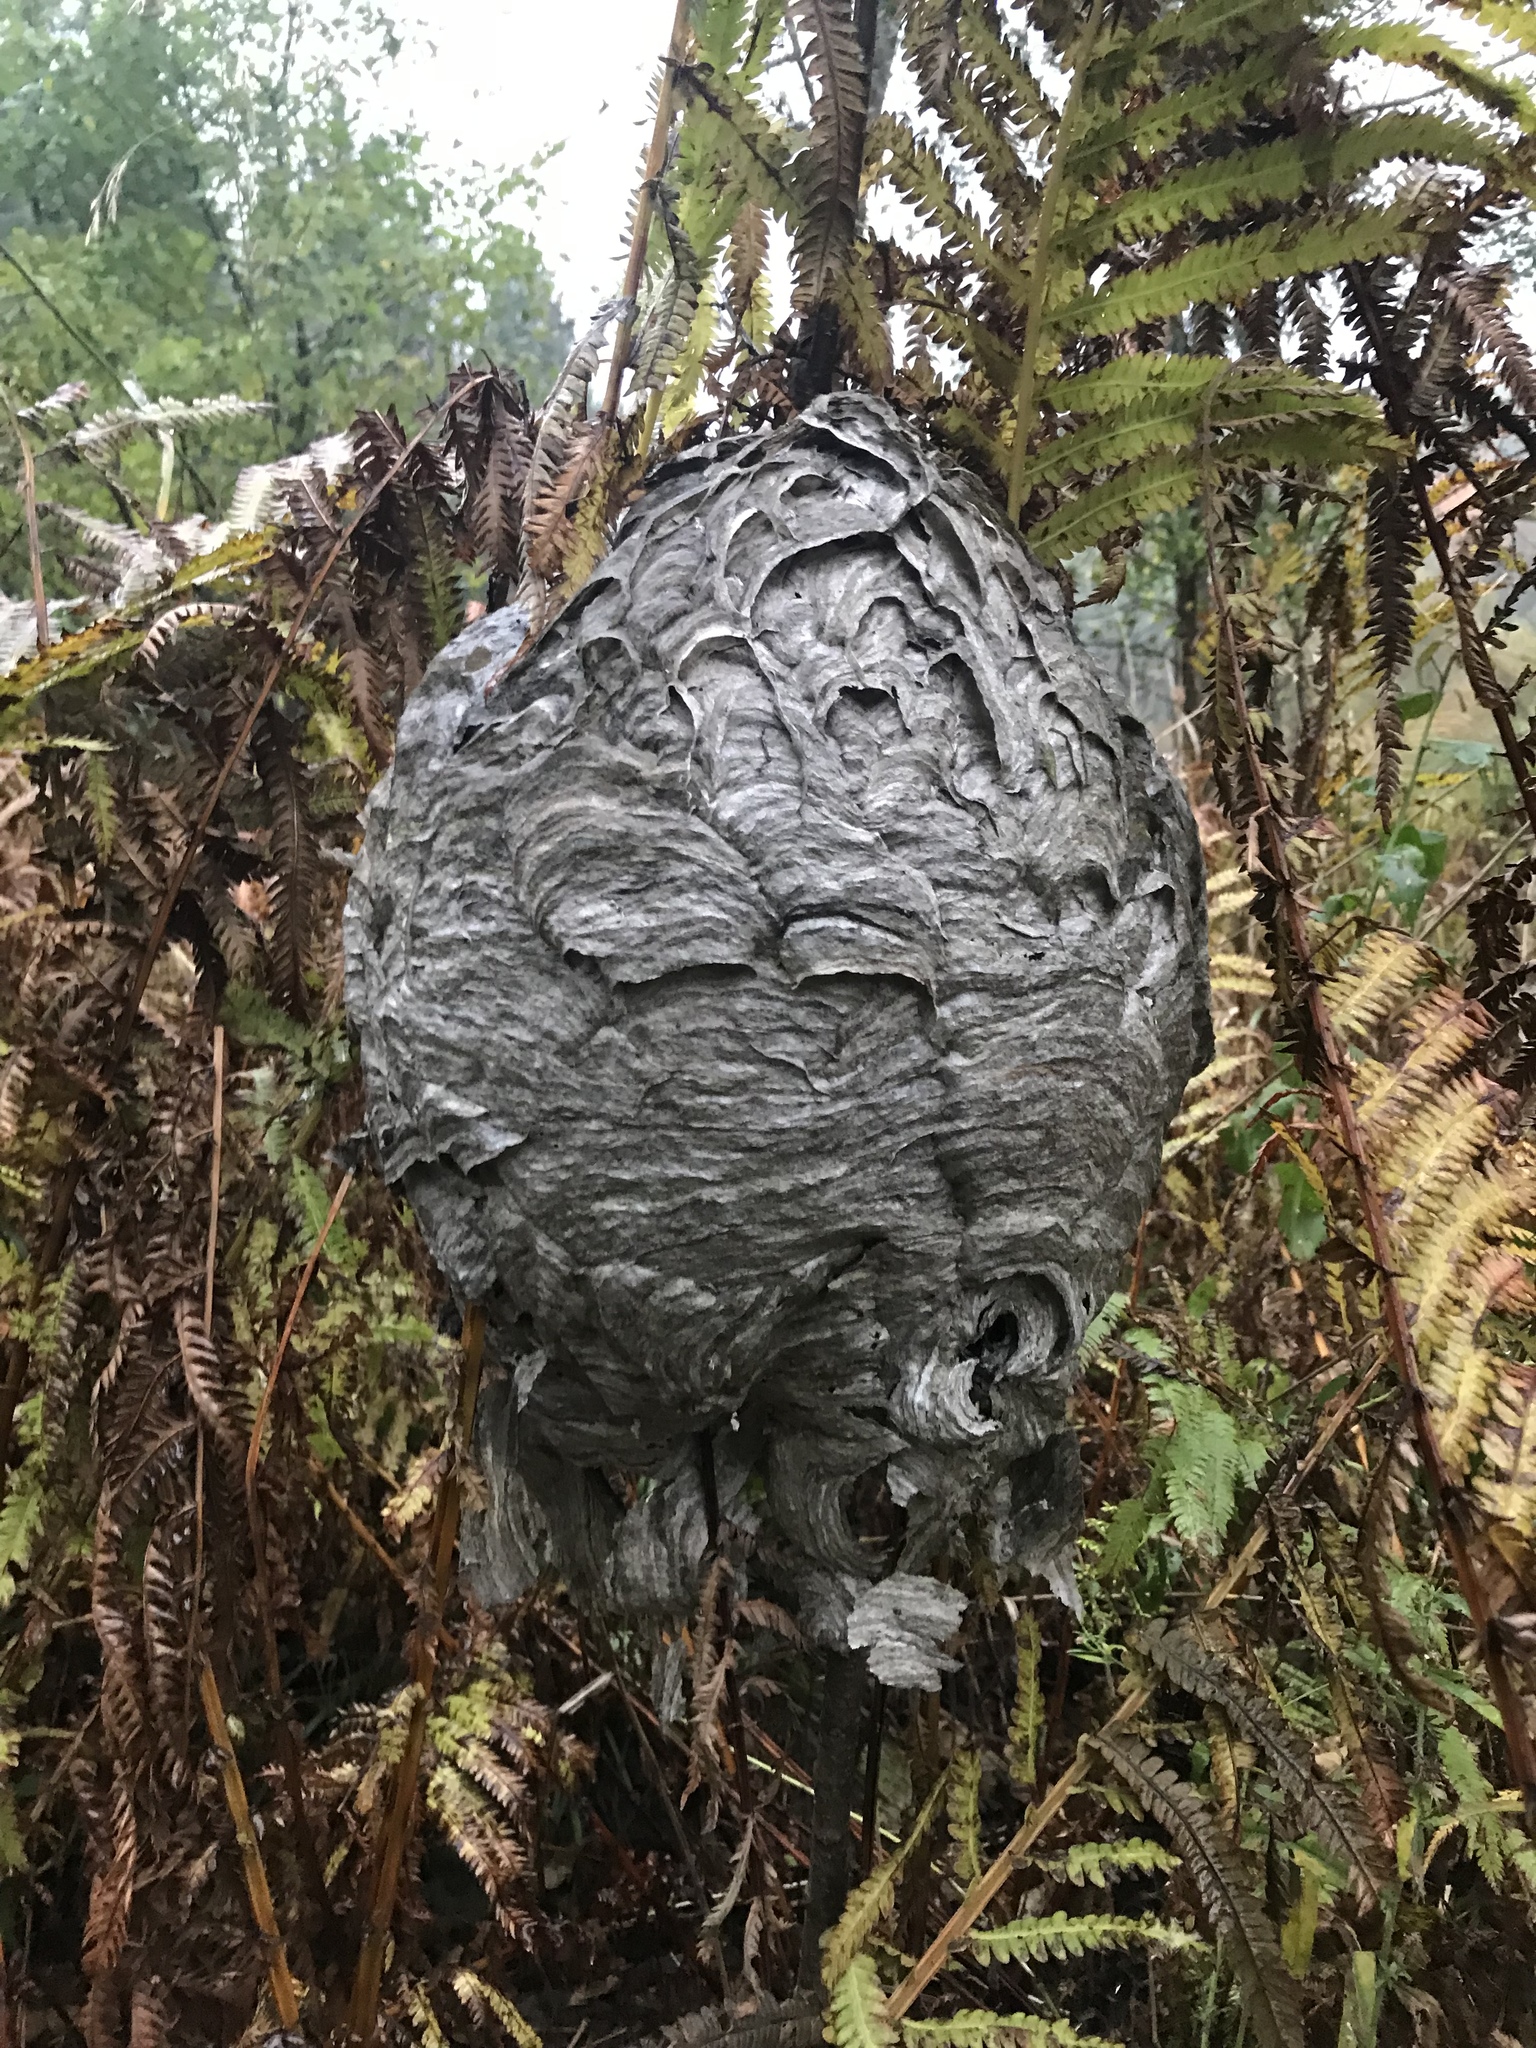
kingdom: Animalia
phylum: Arthropoda
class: Insecta
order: Hymenoptera
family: Vespidae
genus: Dolichovespula
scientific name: Dolichovespula maculata
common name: Bald-faced hornet
